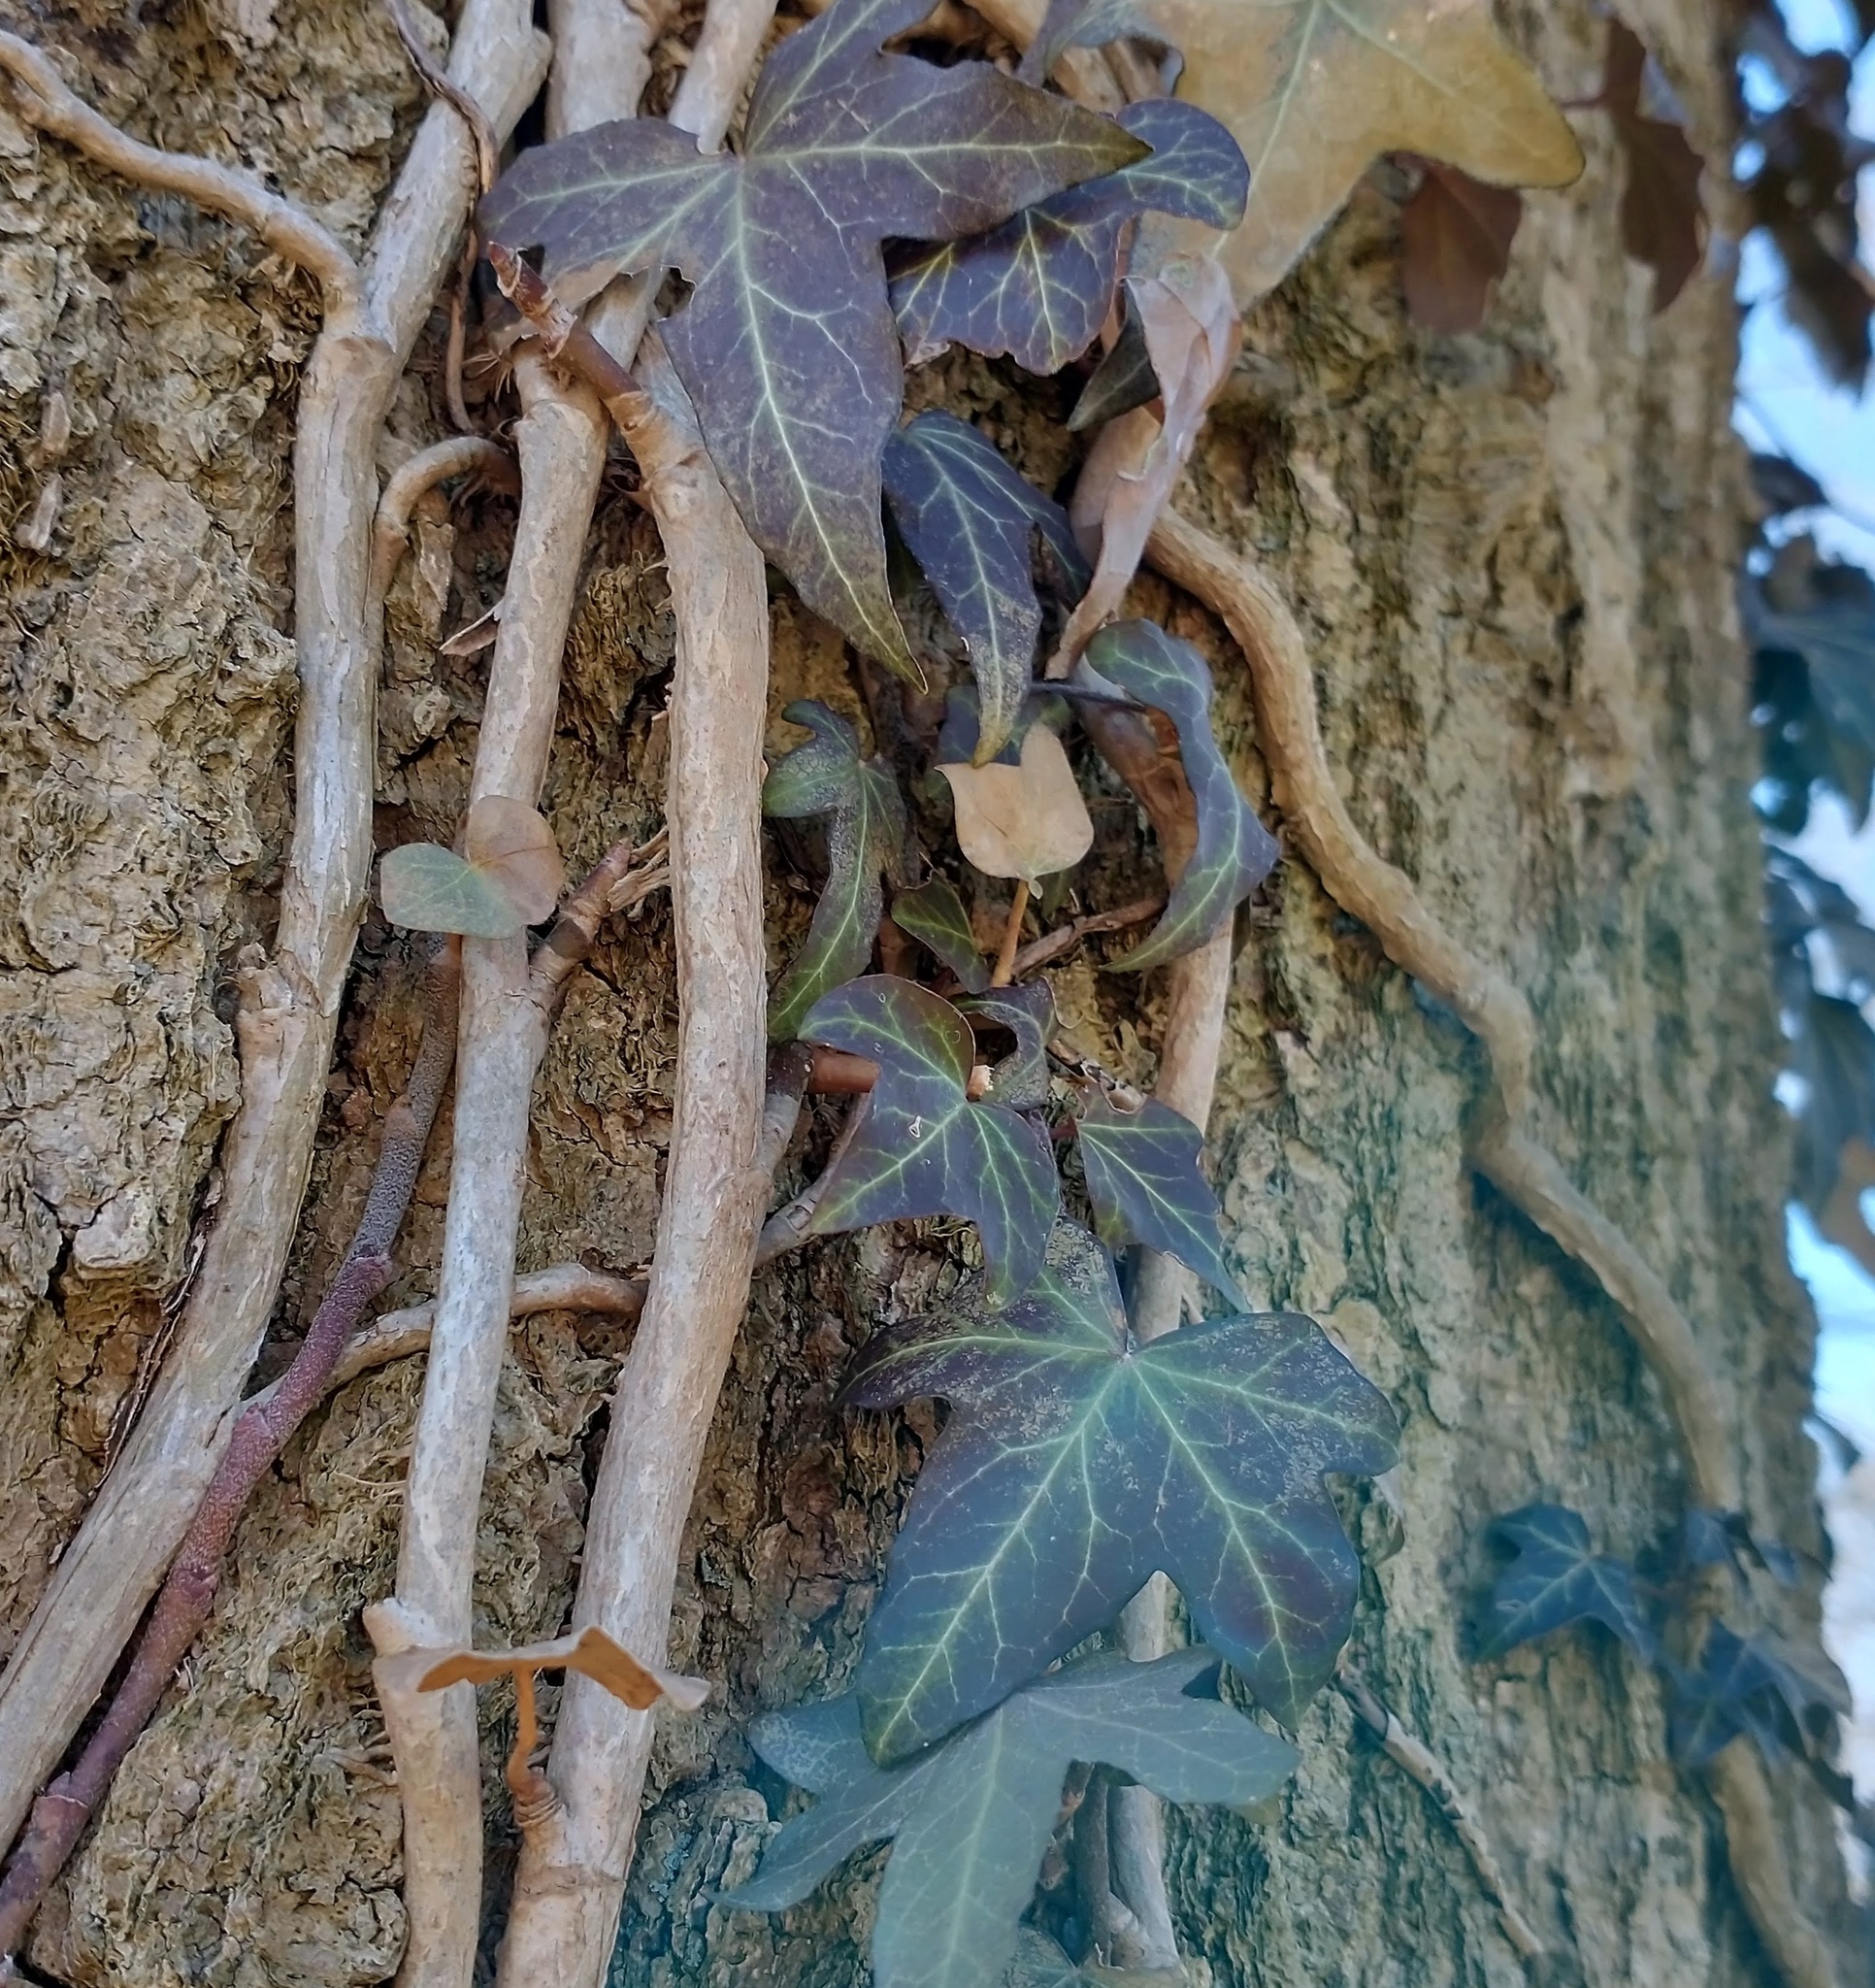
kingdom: Plantae
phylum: Tracheophyta
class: Magnoliopsida
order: Apiales
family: Araliaceae
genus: Hedera
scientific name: Hedera helix
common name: Ivy
